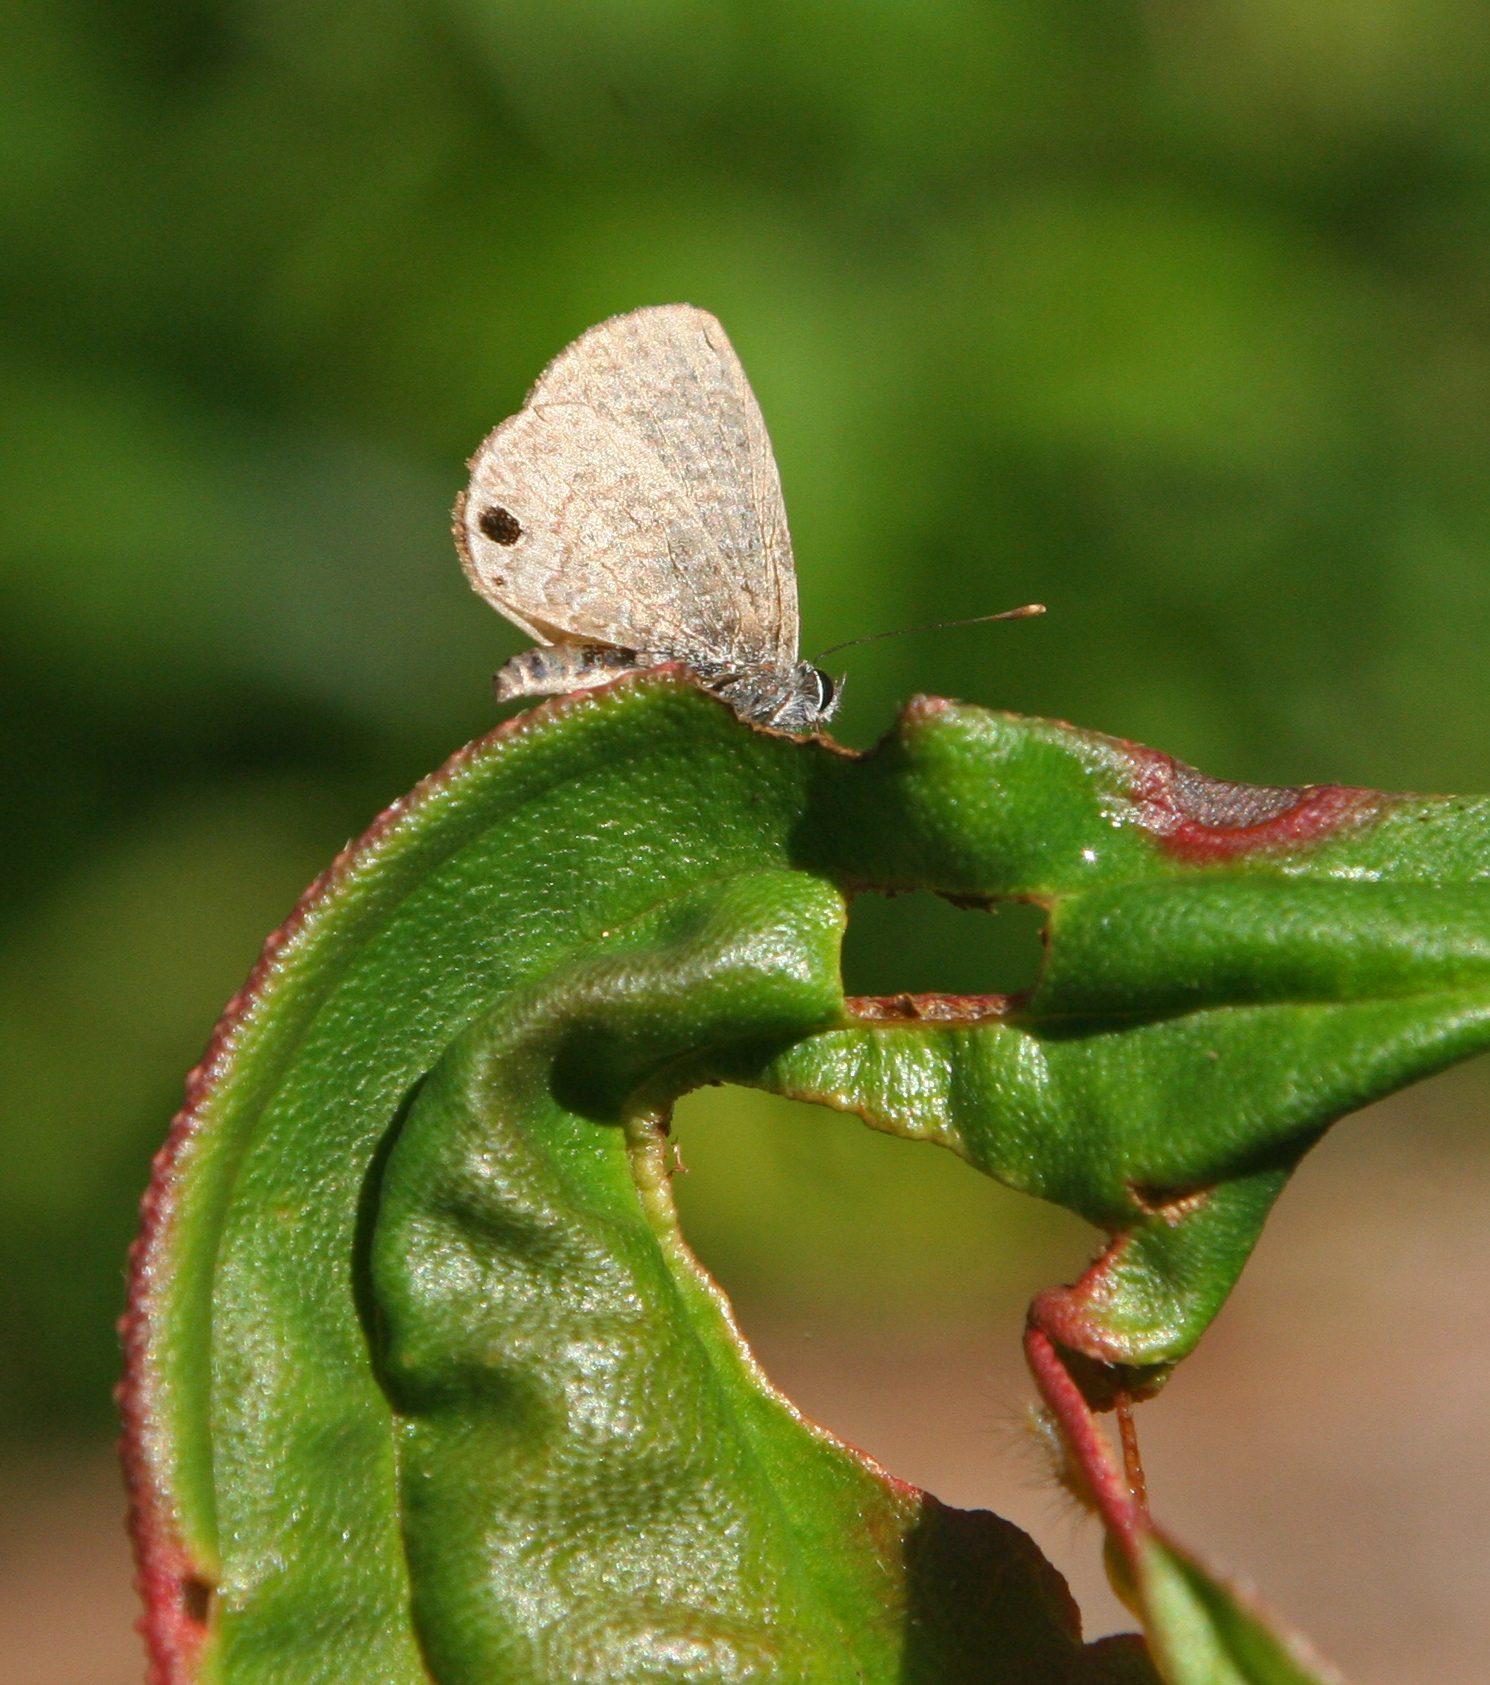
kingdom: Animalia
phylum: Arthropoda
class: Insecta
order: Lepidoptera
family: Lycaenidae
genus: Prosotas
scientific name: Prosotas dubiosa
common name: Tailless lineblue
